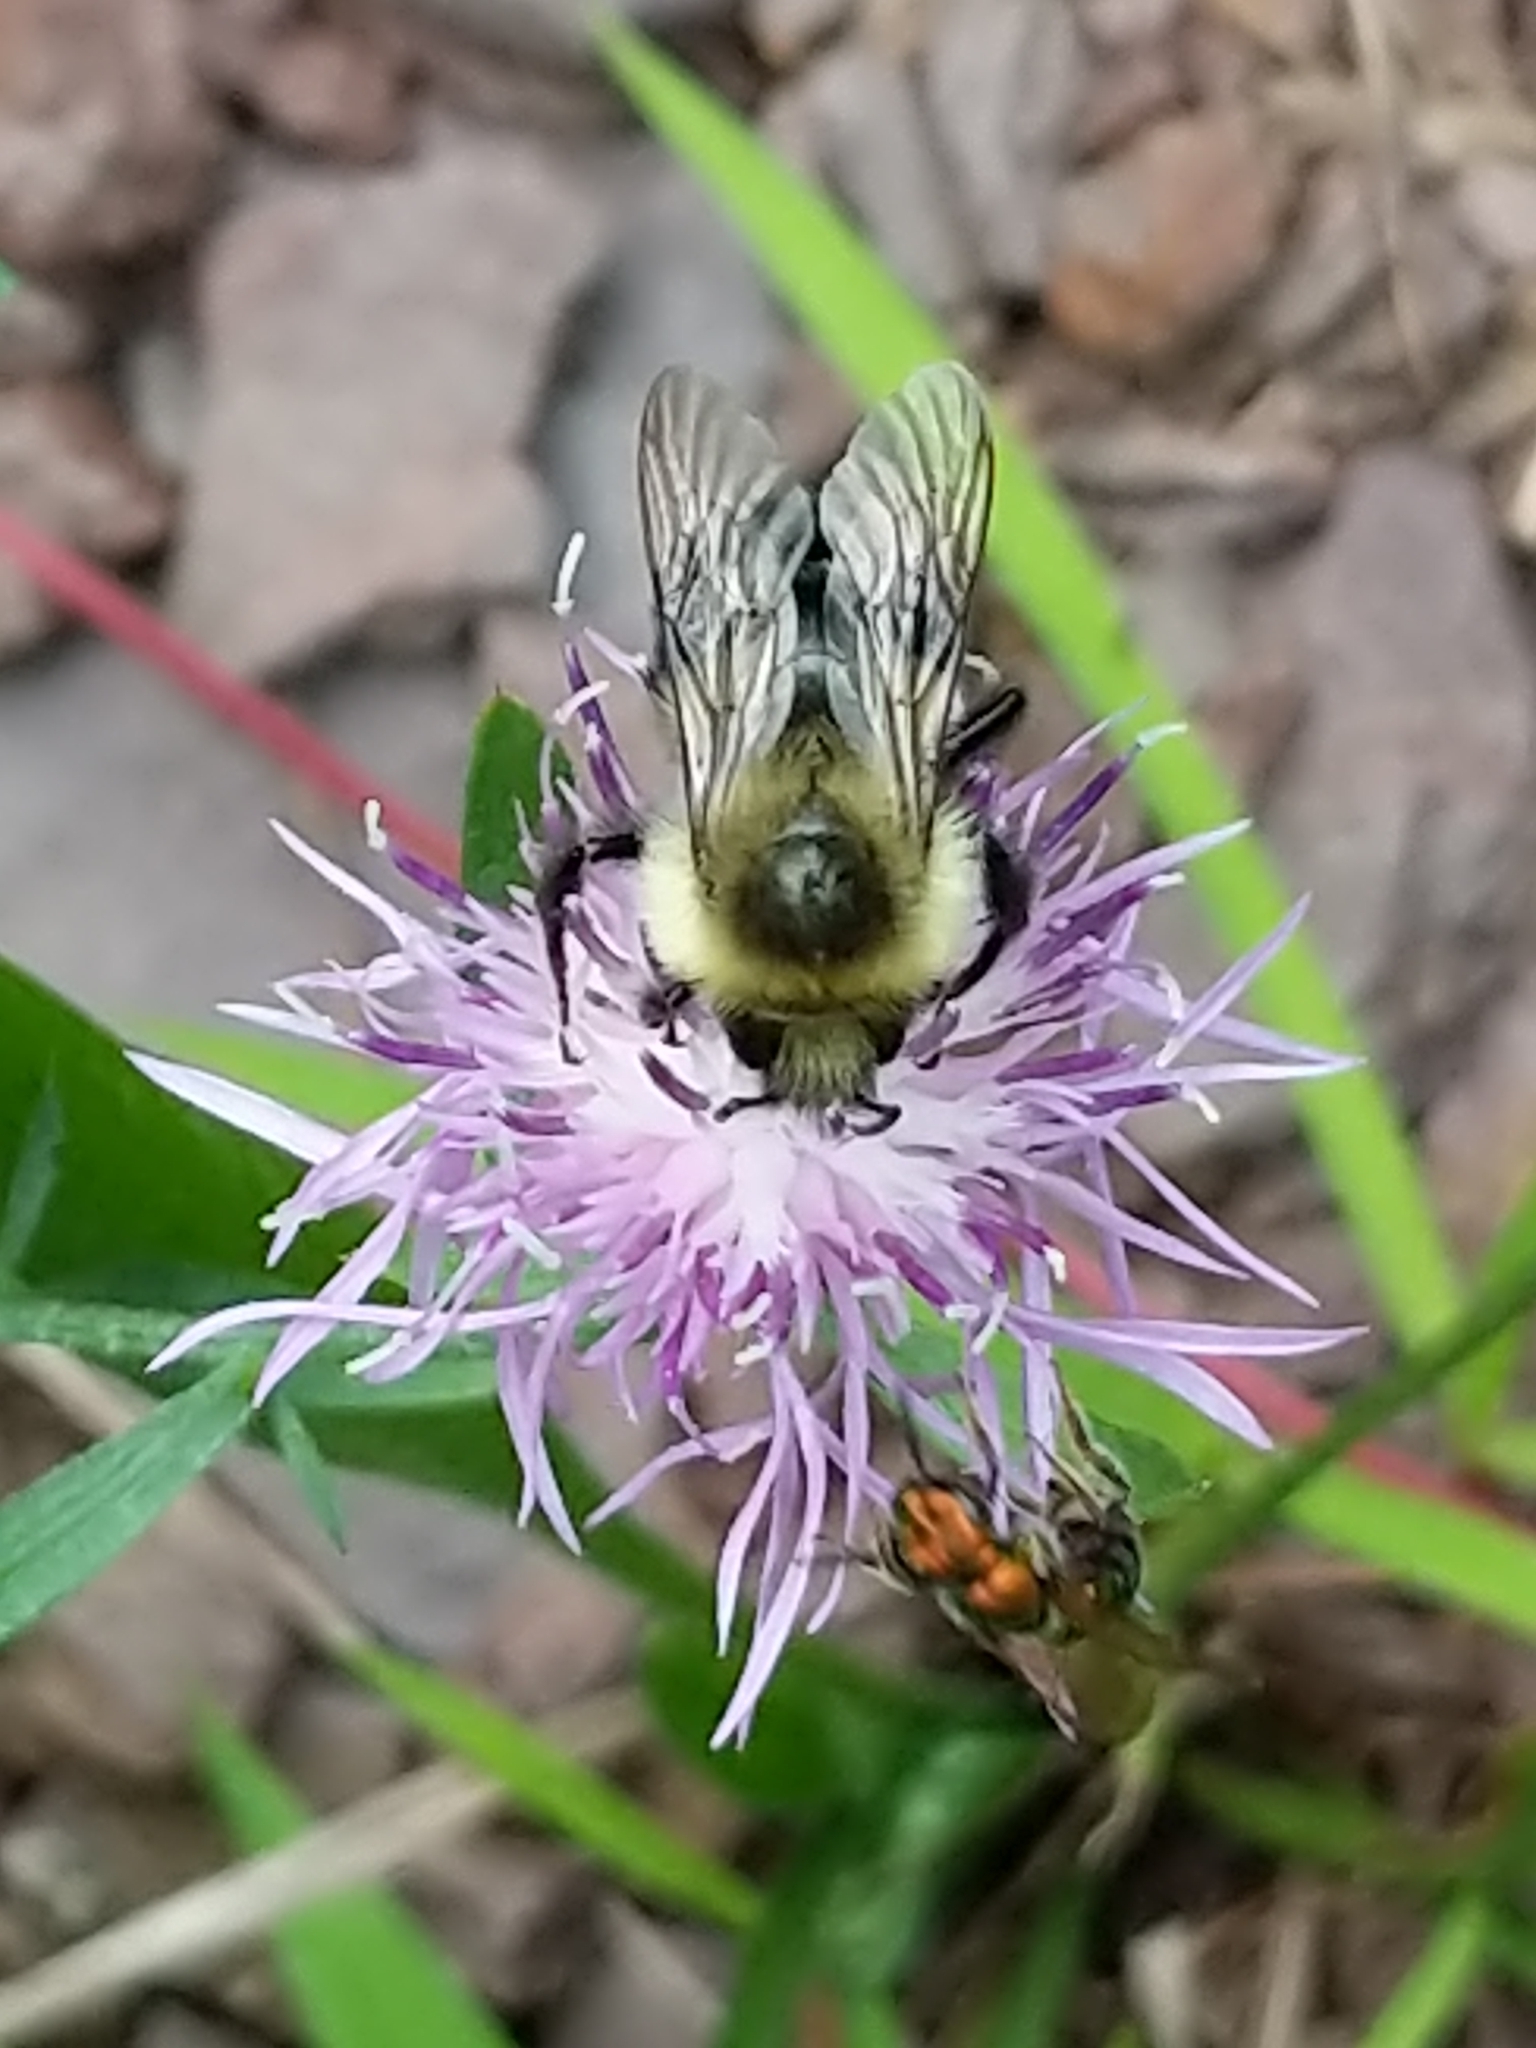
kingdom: Animalia
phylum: Arthropoda
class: Insecta
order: Hymenoptera
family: Apidae
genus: Bombus
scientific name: Bombus impatiens
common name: Common eastern bumble bee
